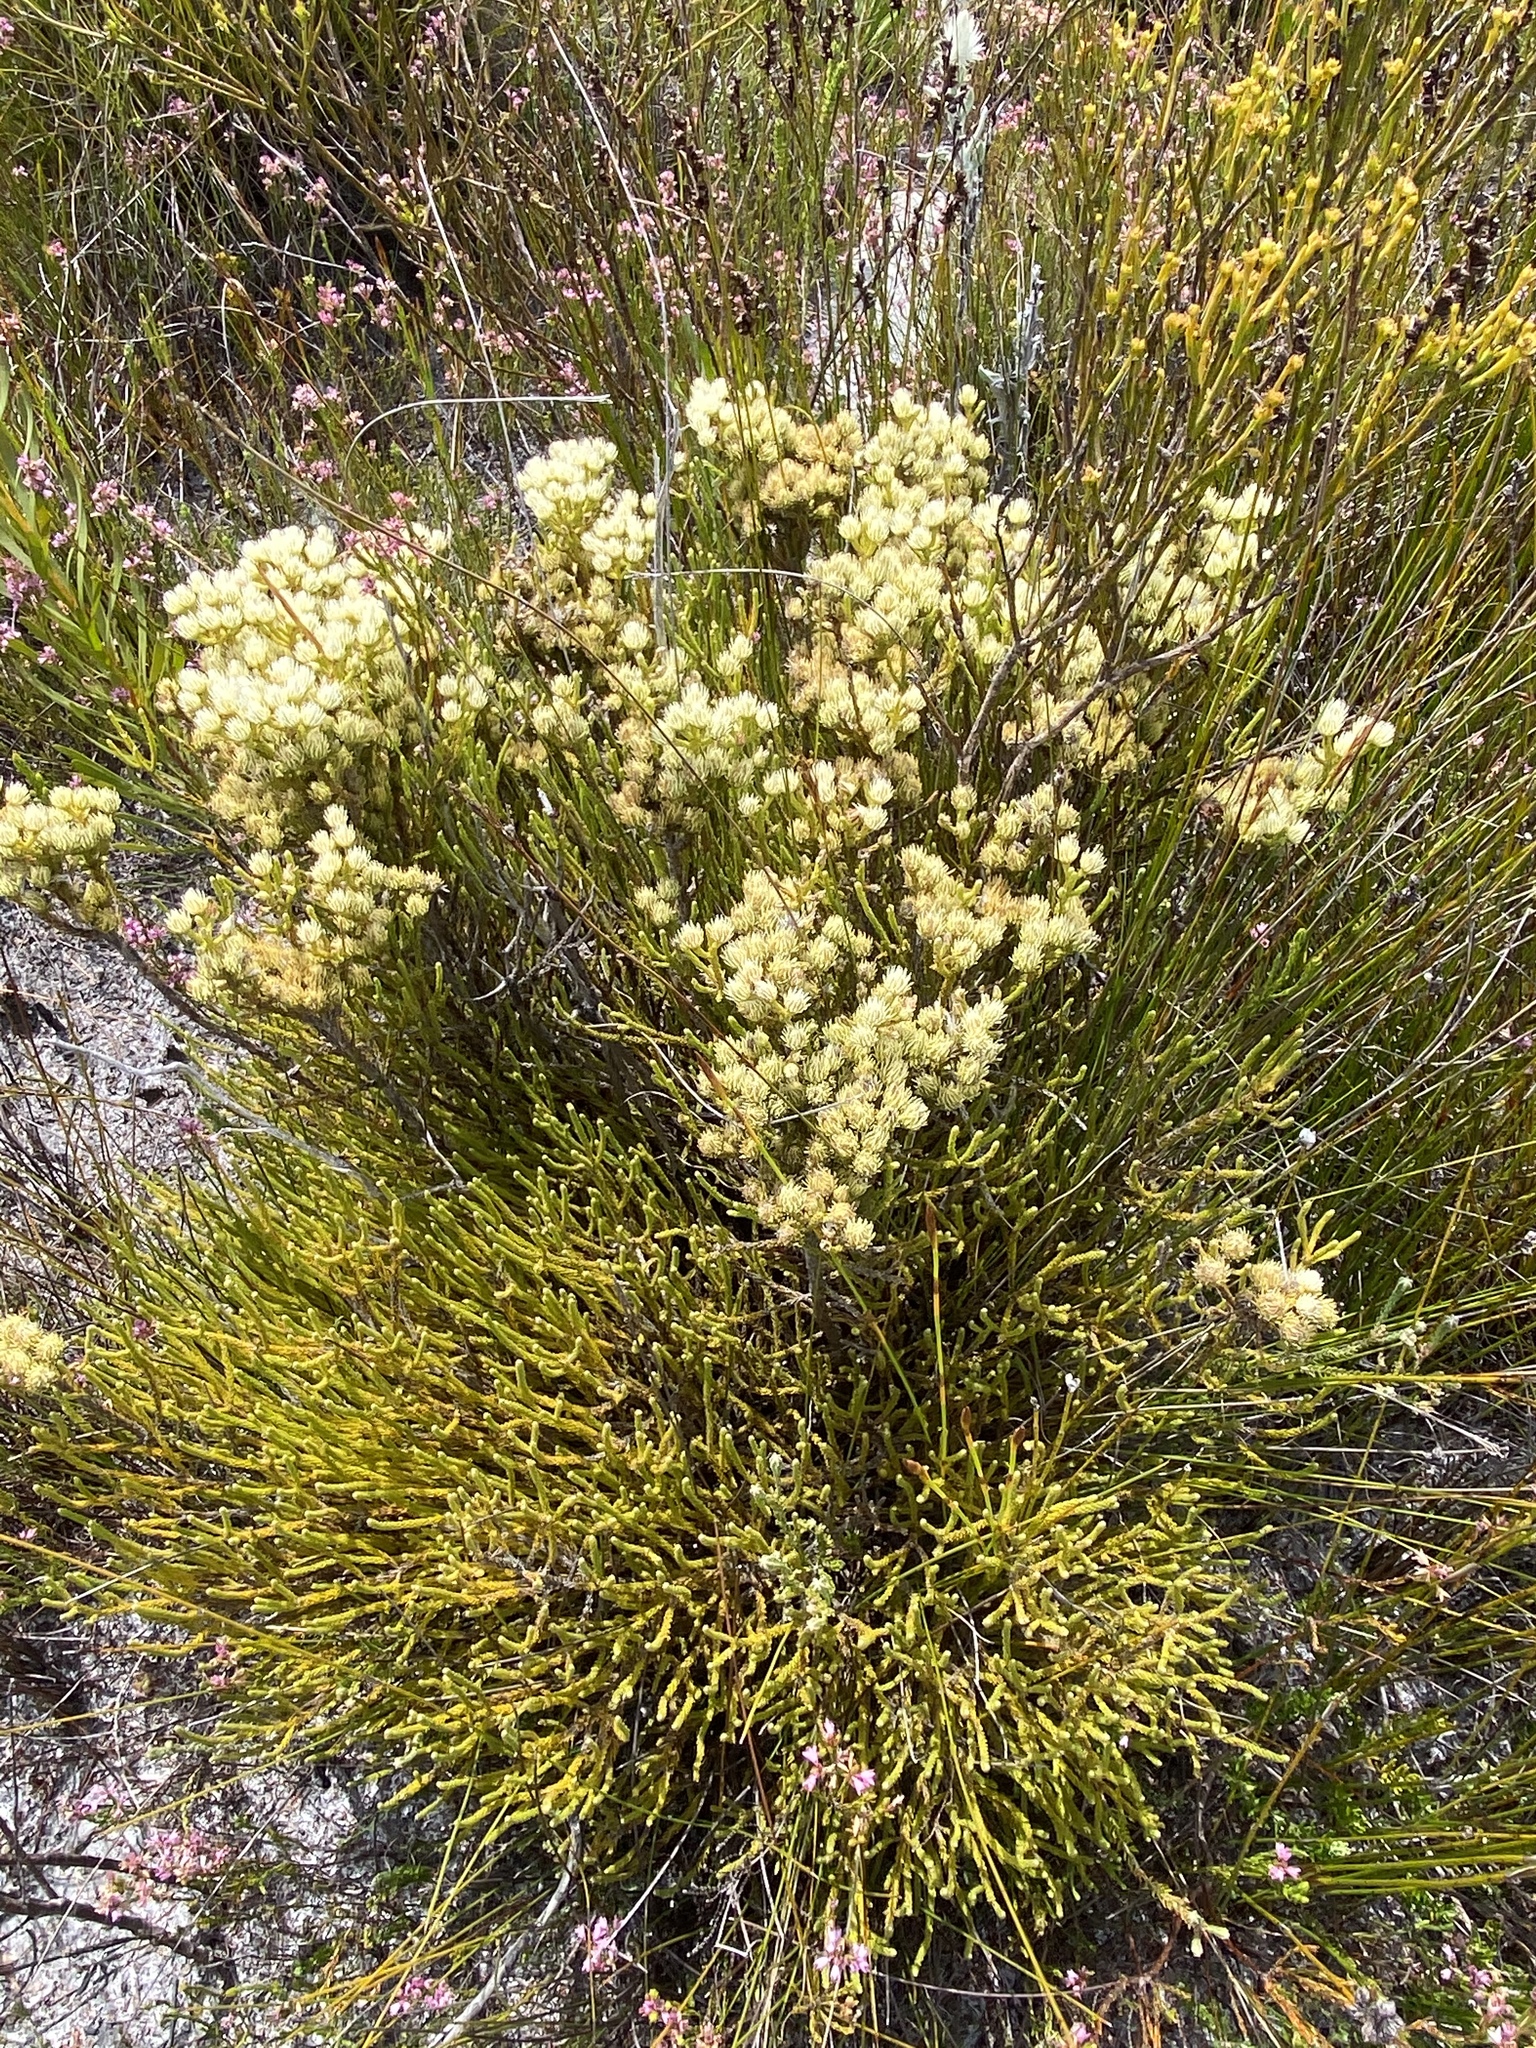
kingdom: Plantae
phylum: Tracheophyta
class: Magnoliopsida
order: Bruniales
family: Bruniaceae
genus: Brunia
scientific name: Brunia paleacea
